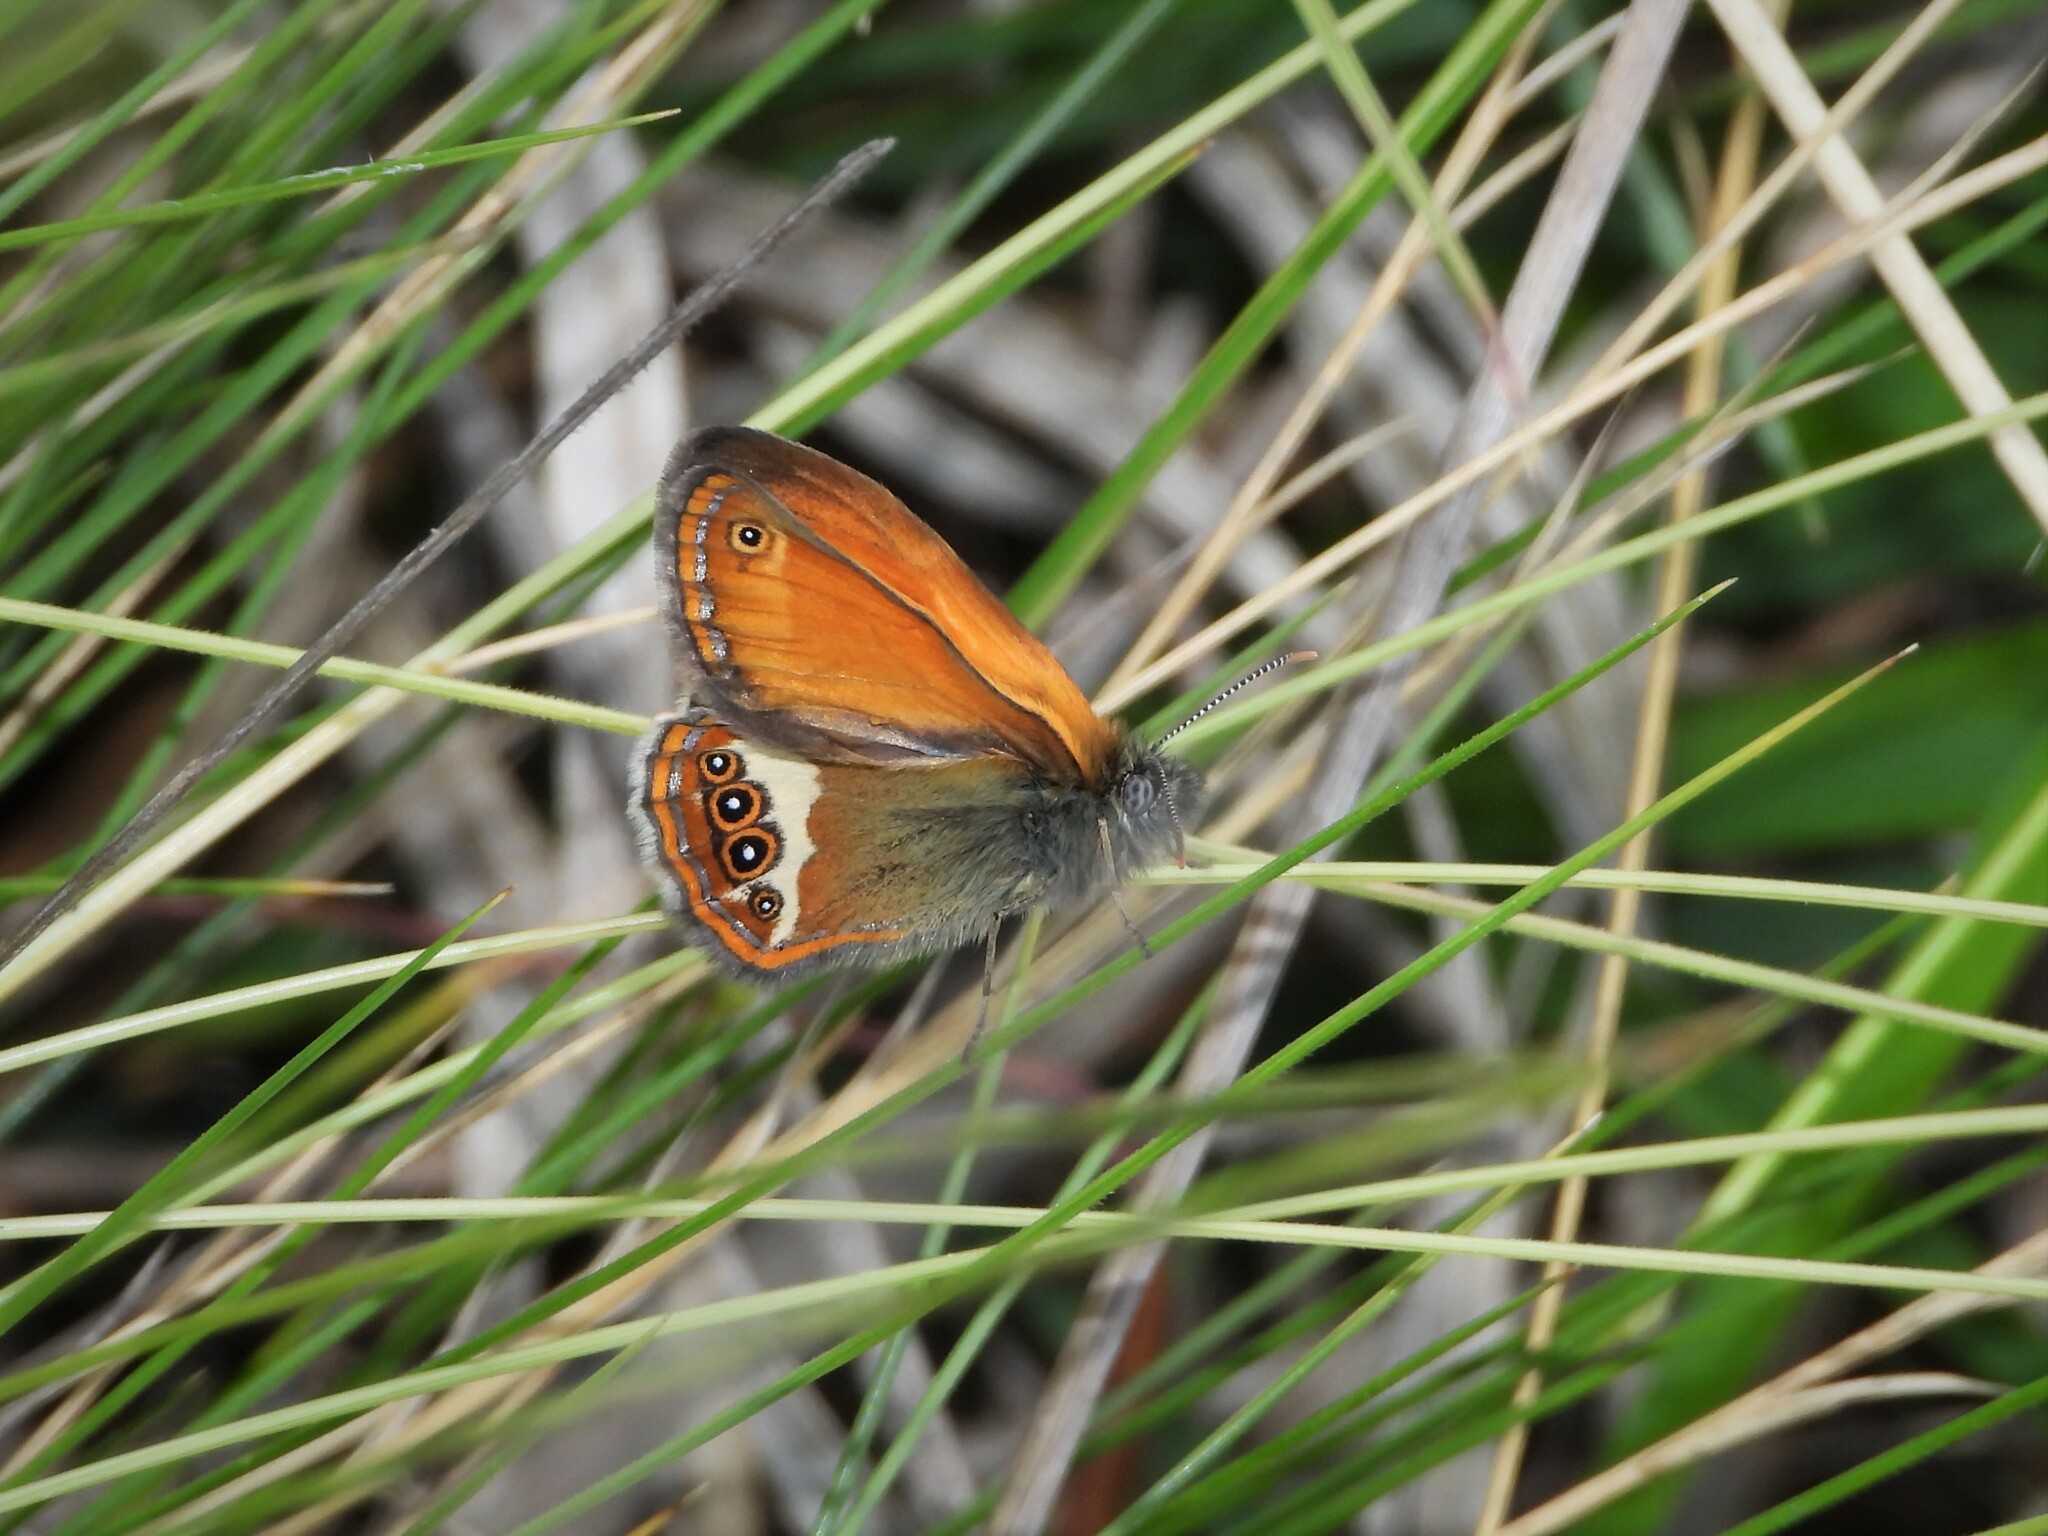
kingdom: Animalia
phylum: Arthropoda
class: Insecta
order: Lepidoptera
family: Nymphalidae
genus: Coenonympha
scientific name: Coenonympha arcania
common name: Pearly heath
